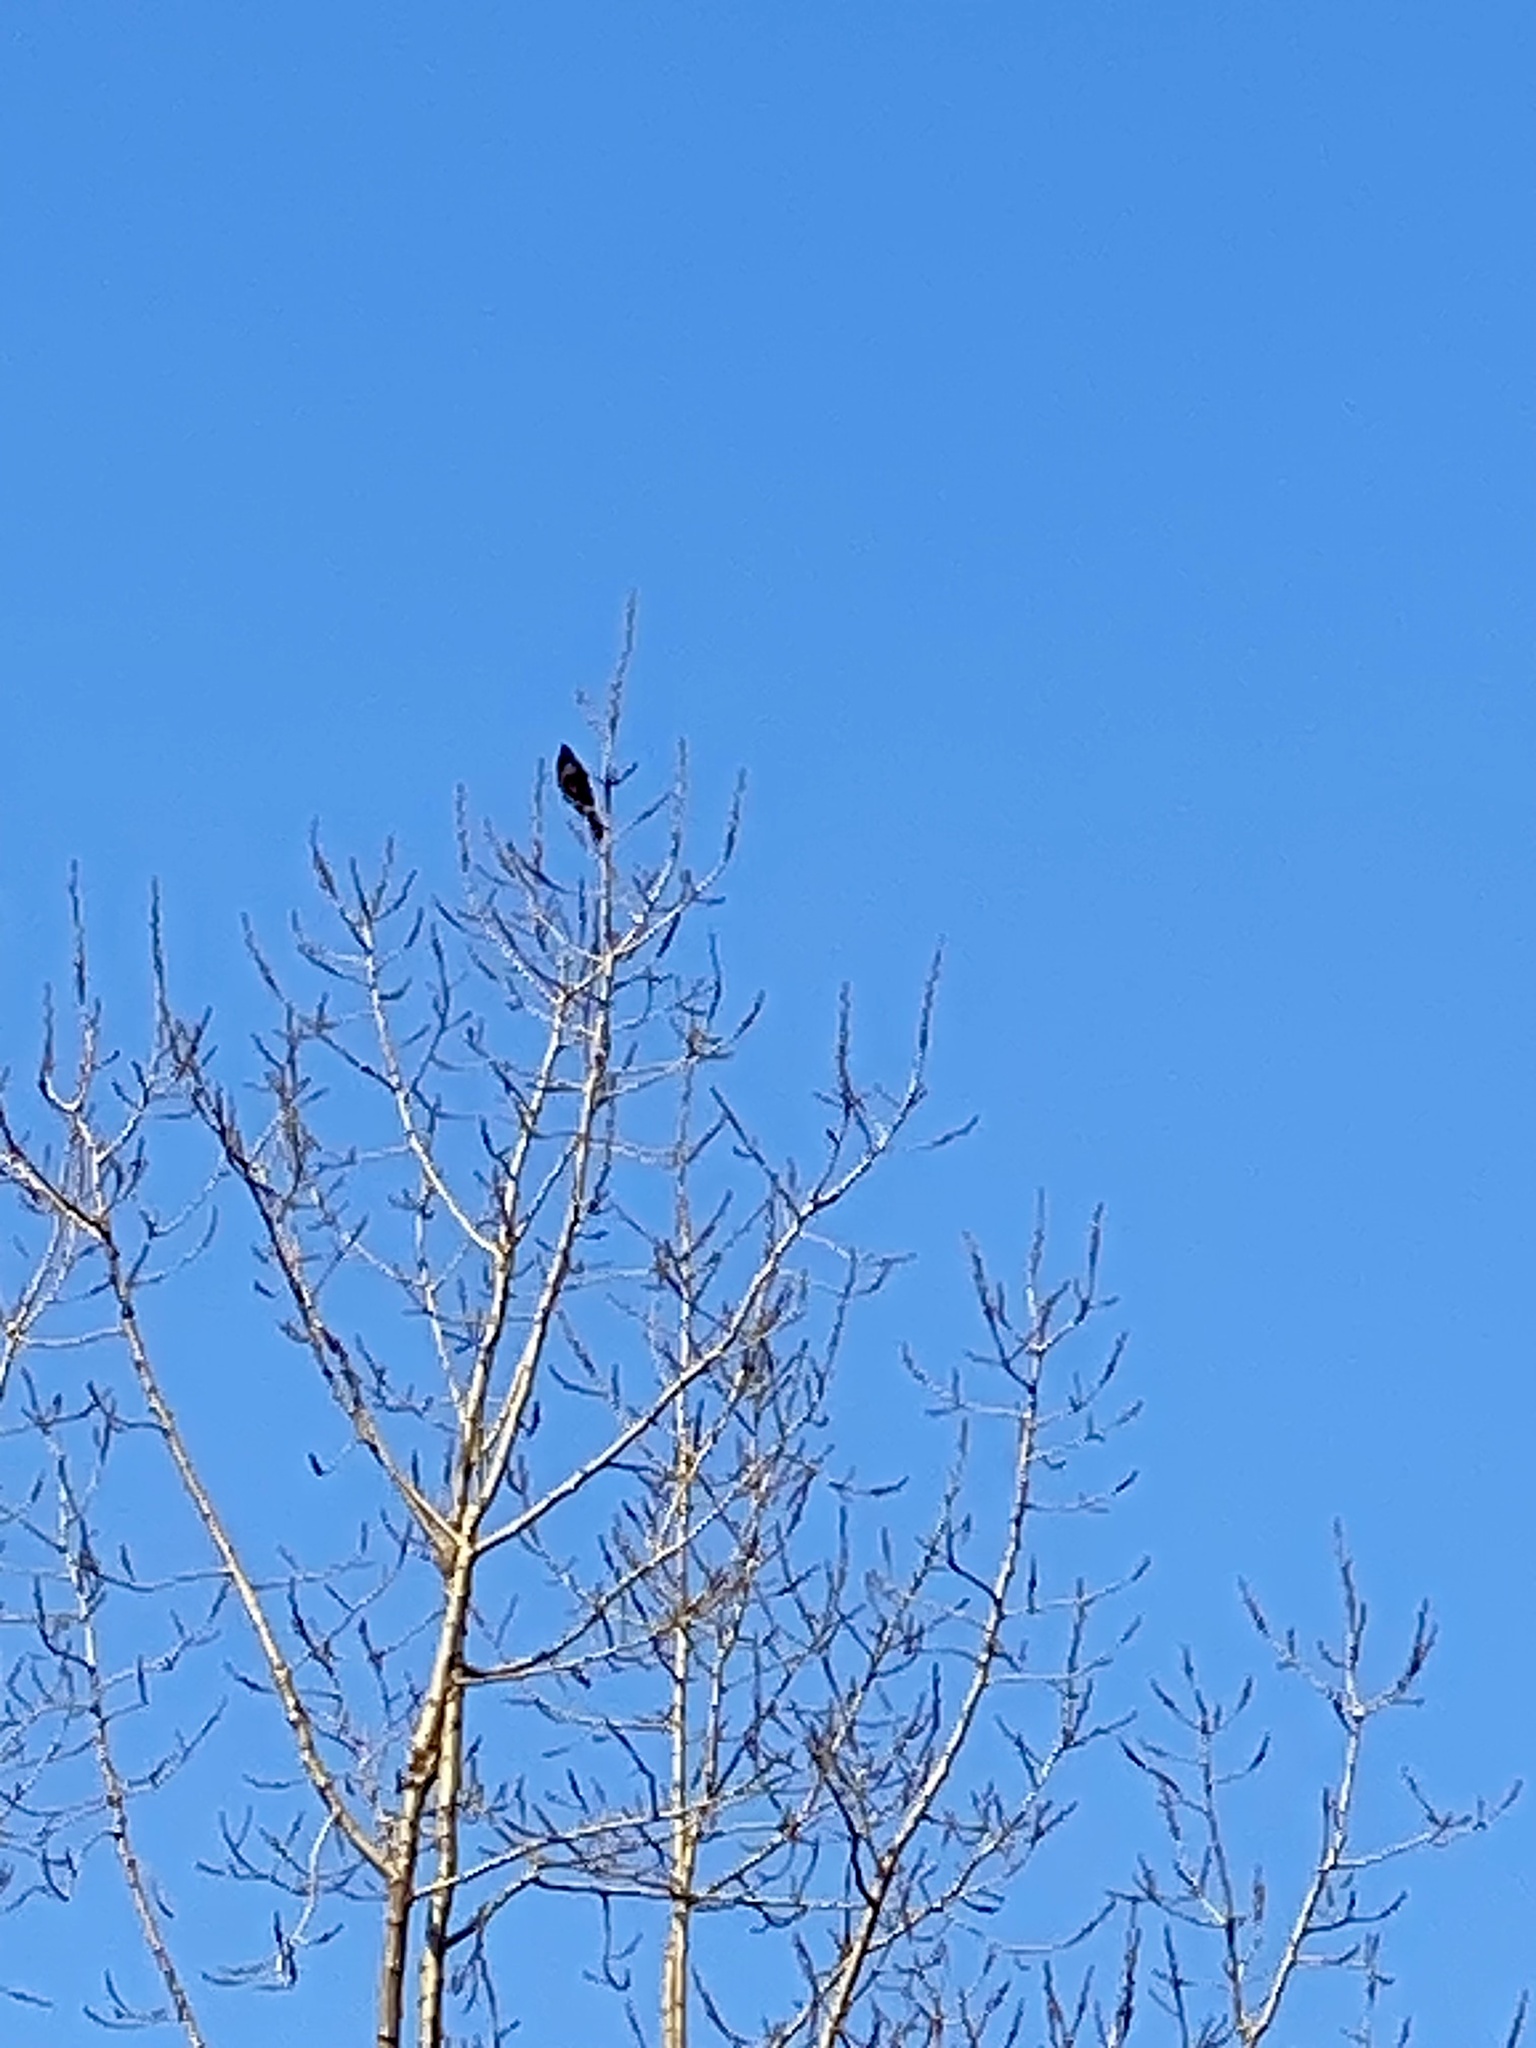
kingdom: Animalia
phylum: Chordata
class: Aves
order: Passeriformes
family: Icteridae
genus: Quiscalus
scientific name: Quiscalus quiscula
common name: Common grackle
